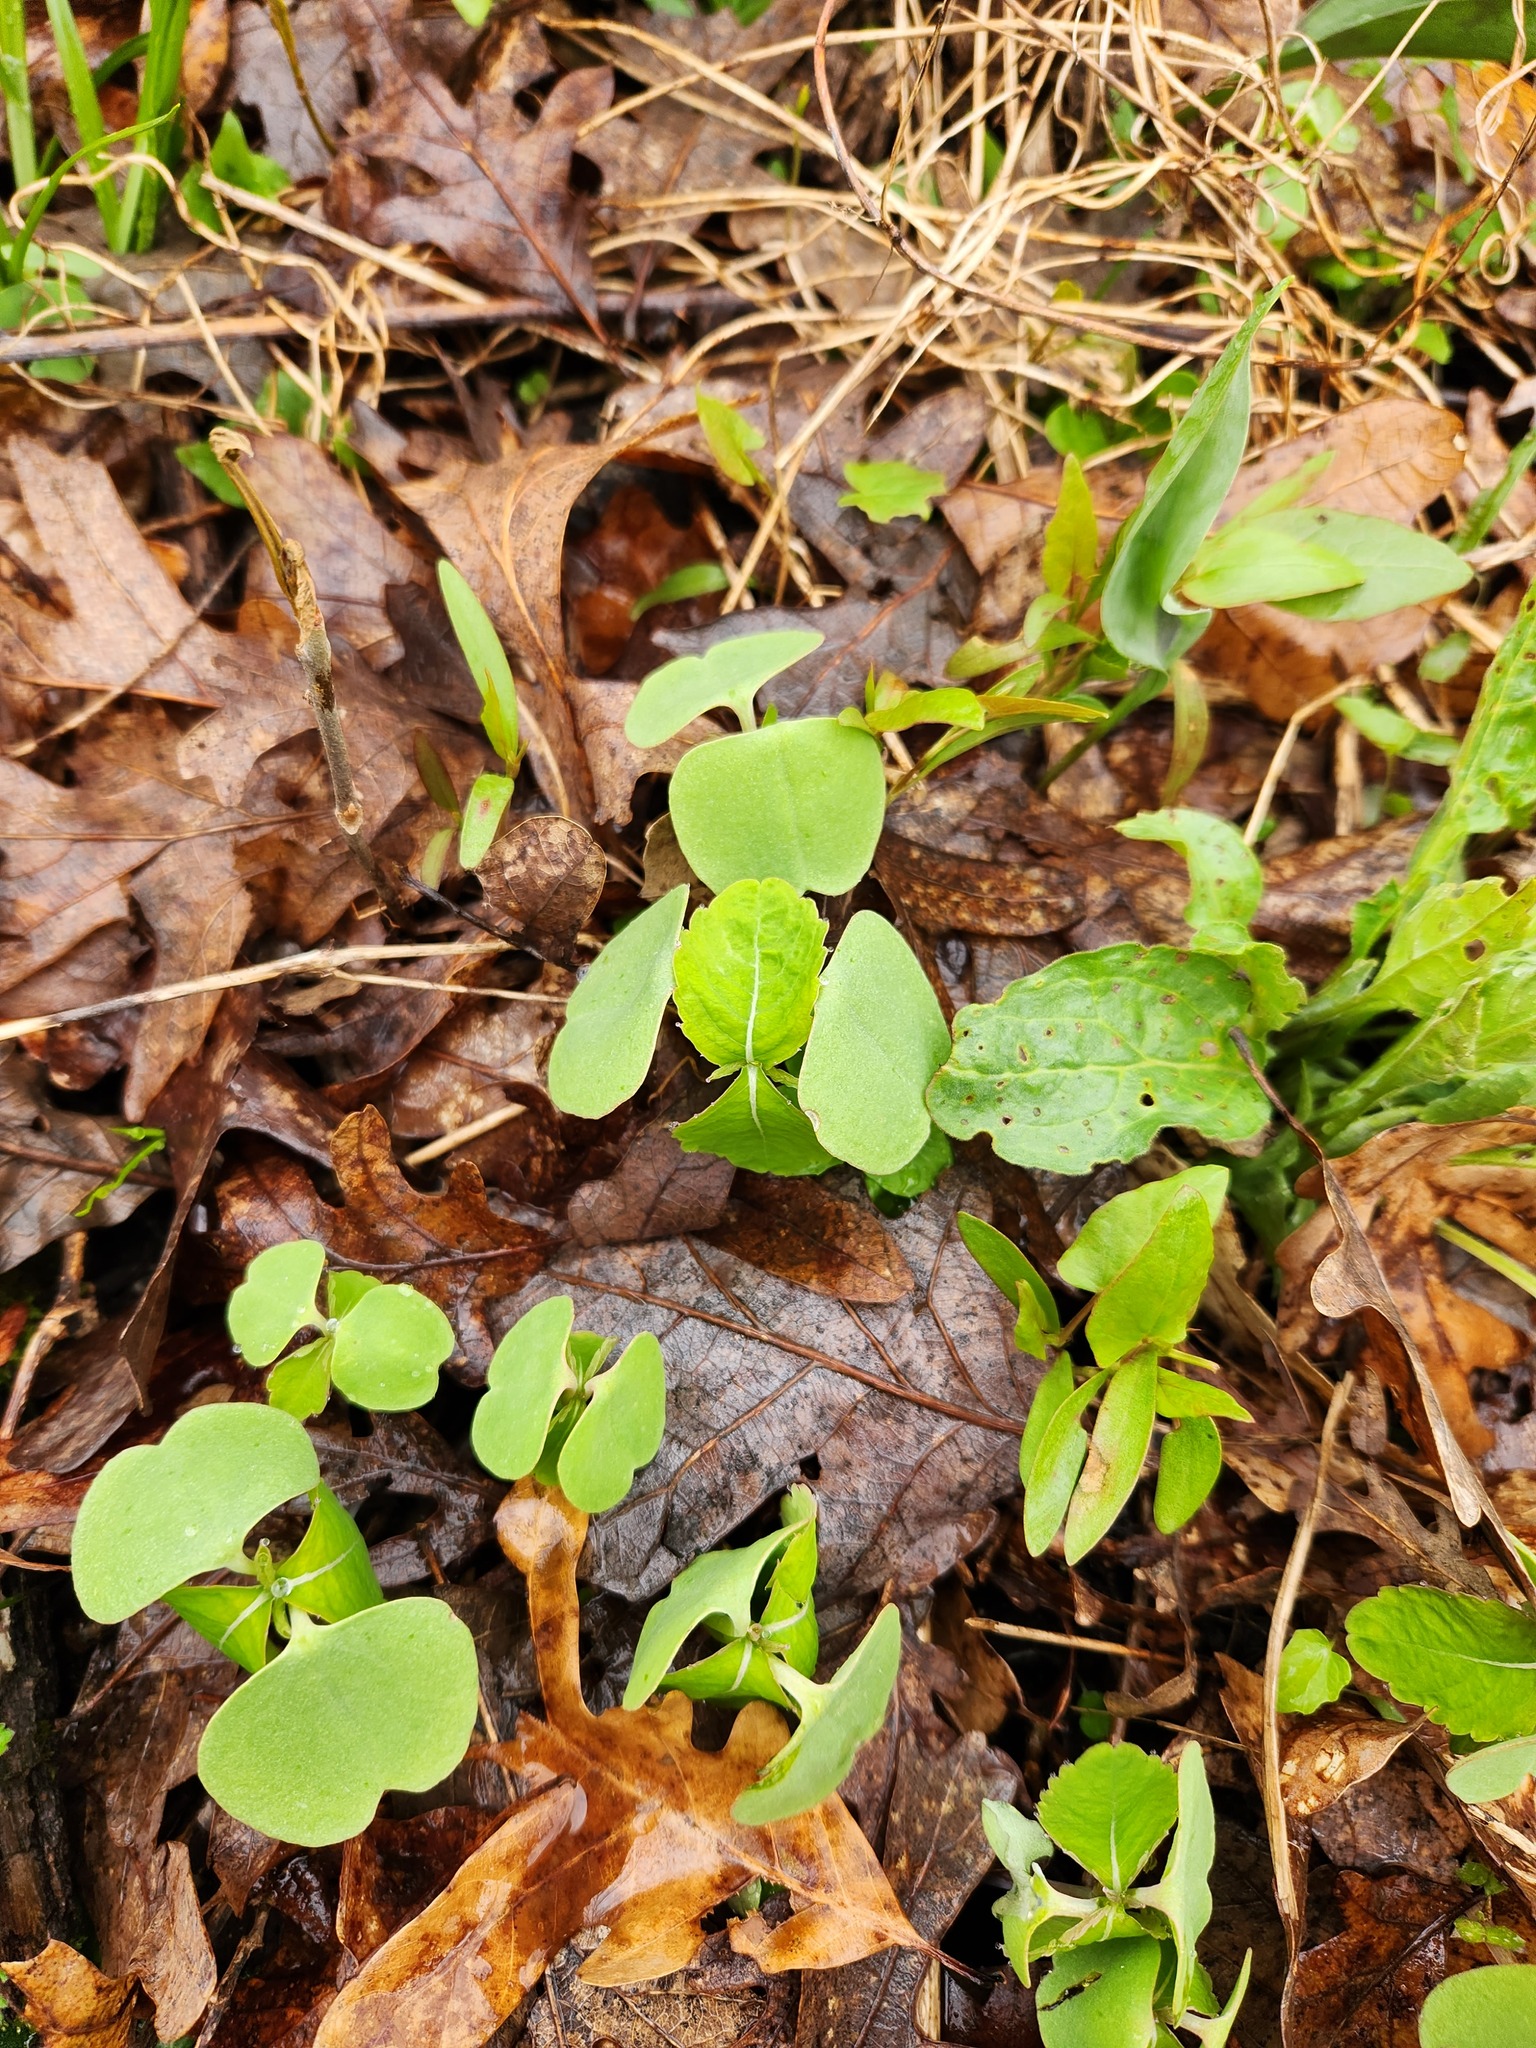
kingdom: Plantae
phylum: Tracheophyta
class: Magnoliopsida
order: Ericales
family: Balsaminaceae
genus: Impatiens
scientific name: Impatiens capensis
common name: Orange balsam
